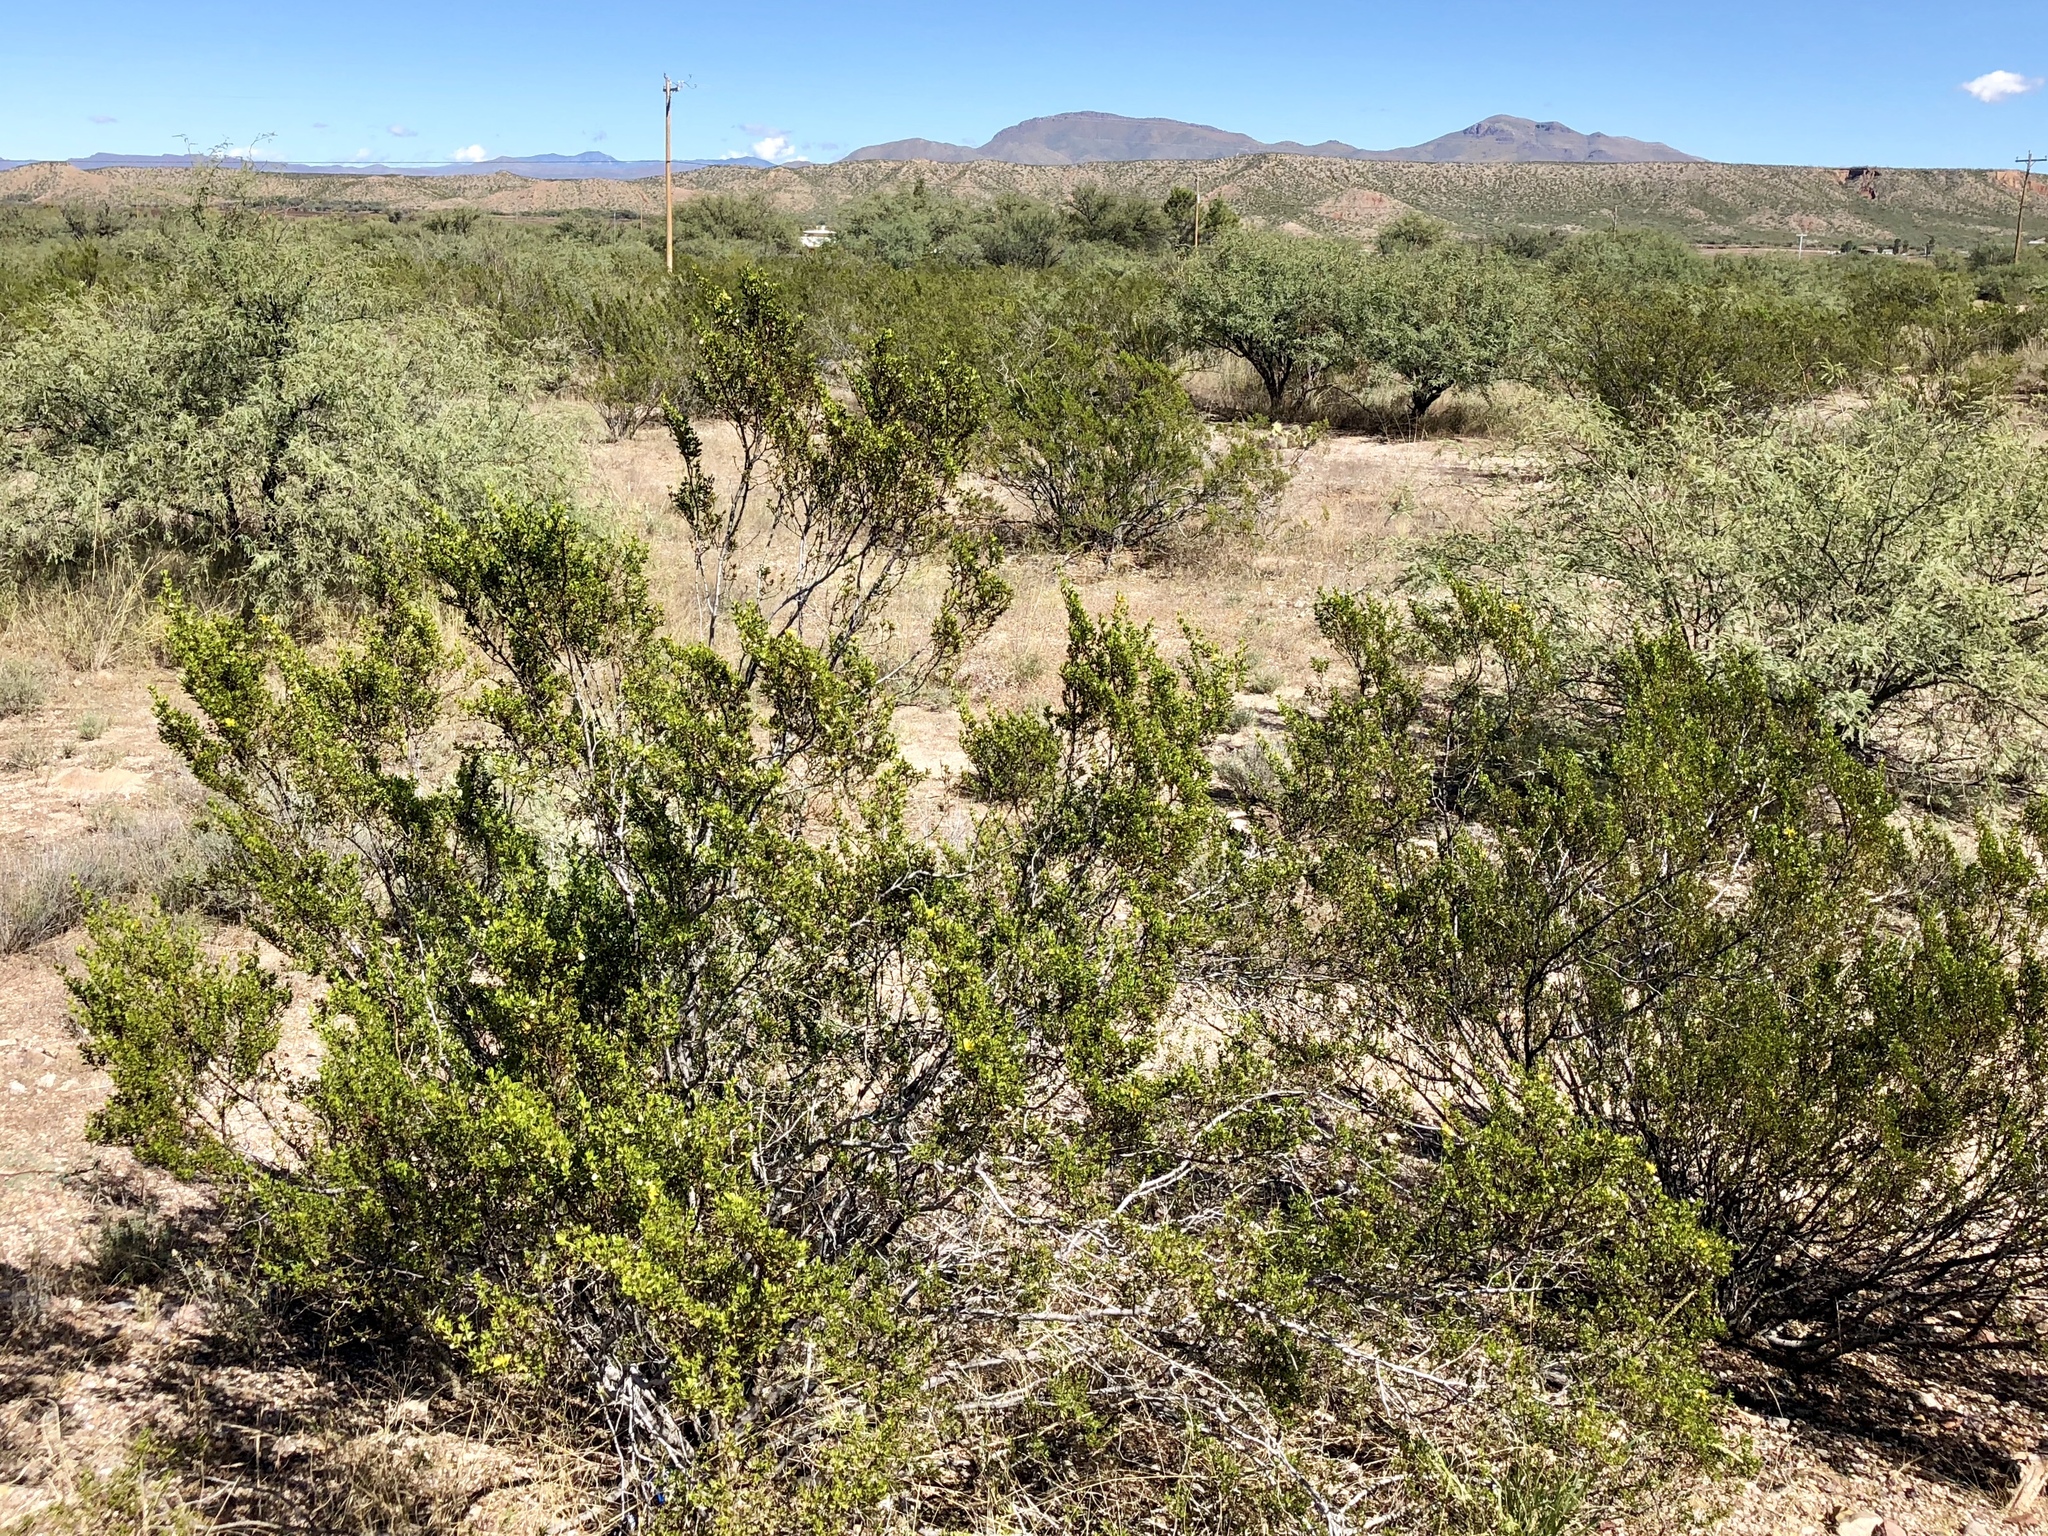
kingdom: Plantae
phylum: Tracheophyta
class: Magnoliopsida
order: Zygophyllales
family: Zygophyllaceae
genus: Larrea
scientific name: Larrea tridentata
